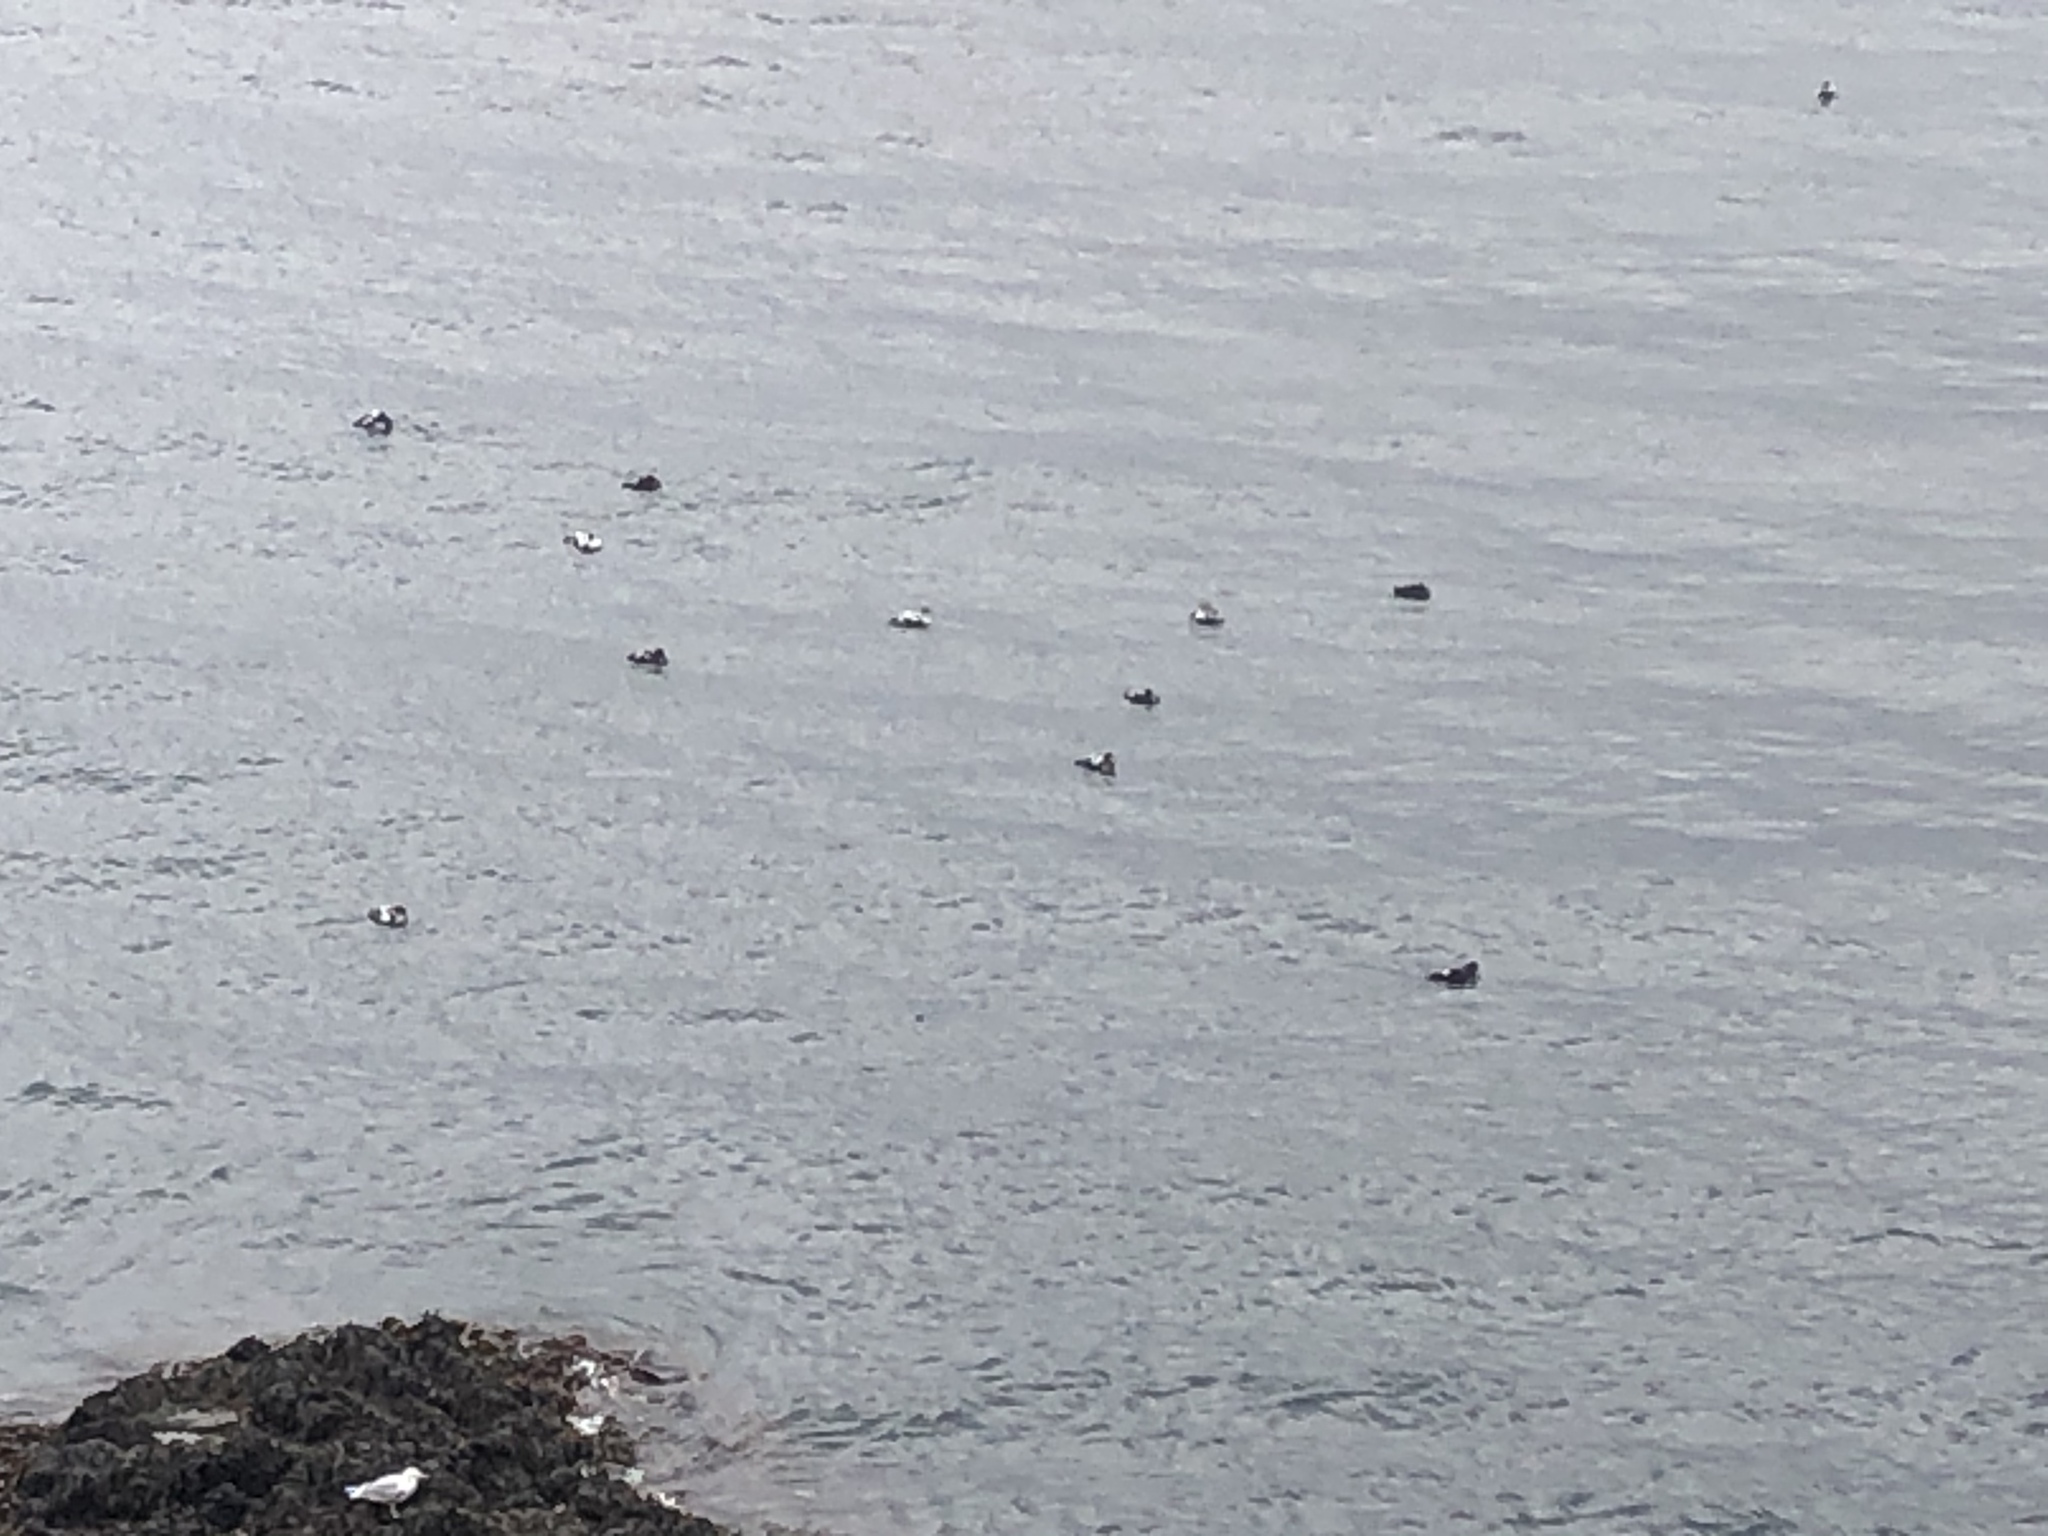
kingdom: Animalia
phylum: Chordata
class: Aves
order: Anseriformes
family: Anatidae
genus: Somateria
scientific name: Somateria mollissima
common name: Common eider
